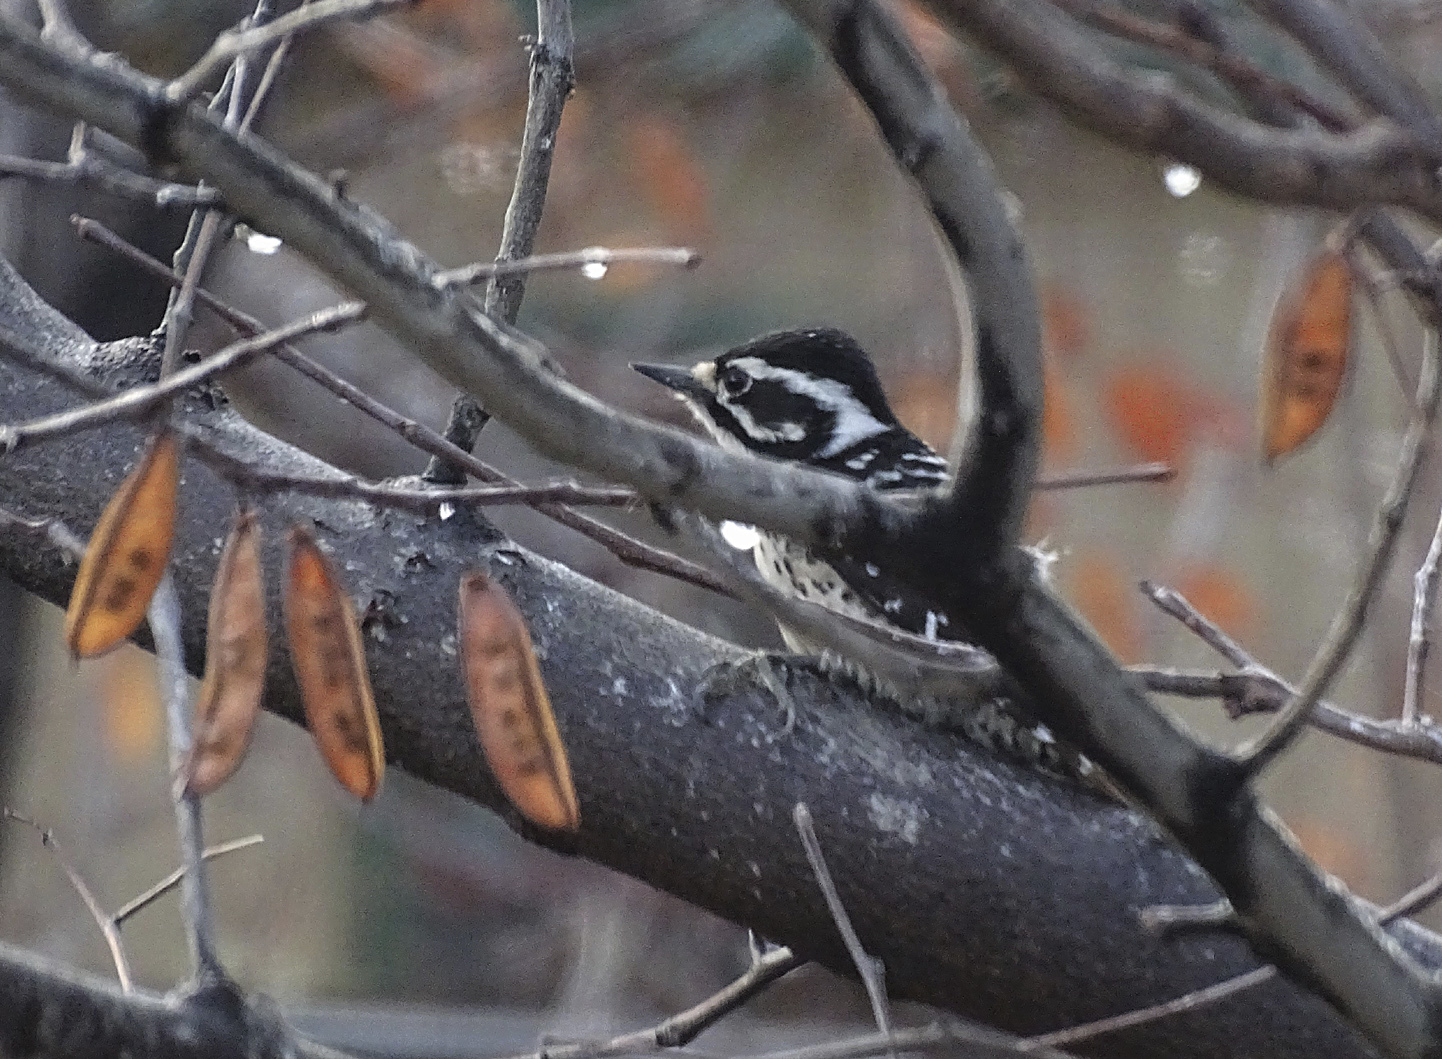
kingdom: Animalia
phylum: Chordata
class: Aves
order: Piciformes
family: Picidae
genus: Dryobates
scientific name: Dryobates nuttallii
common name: Nuttall's woodpecker
